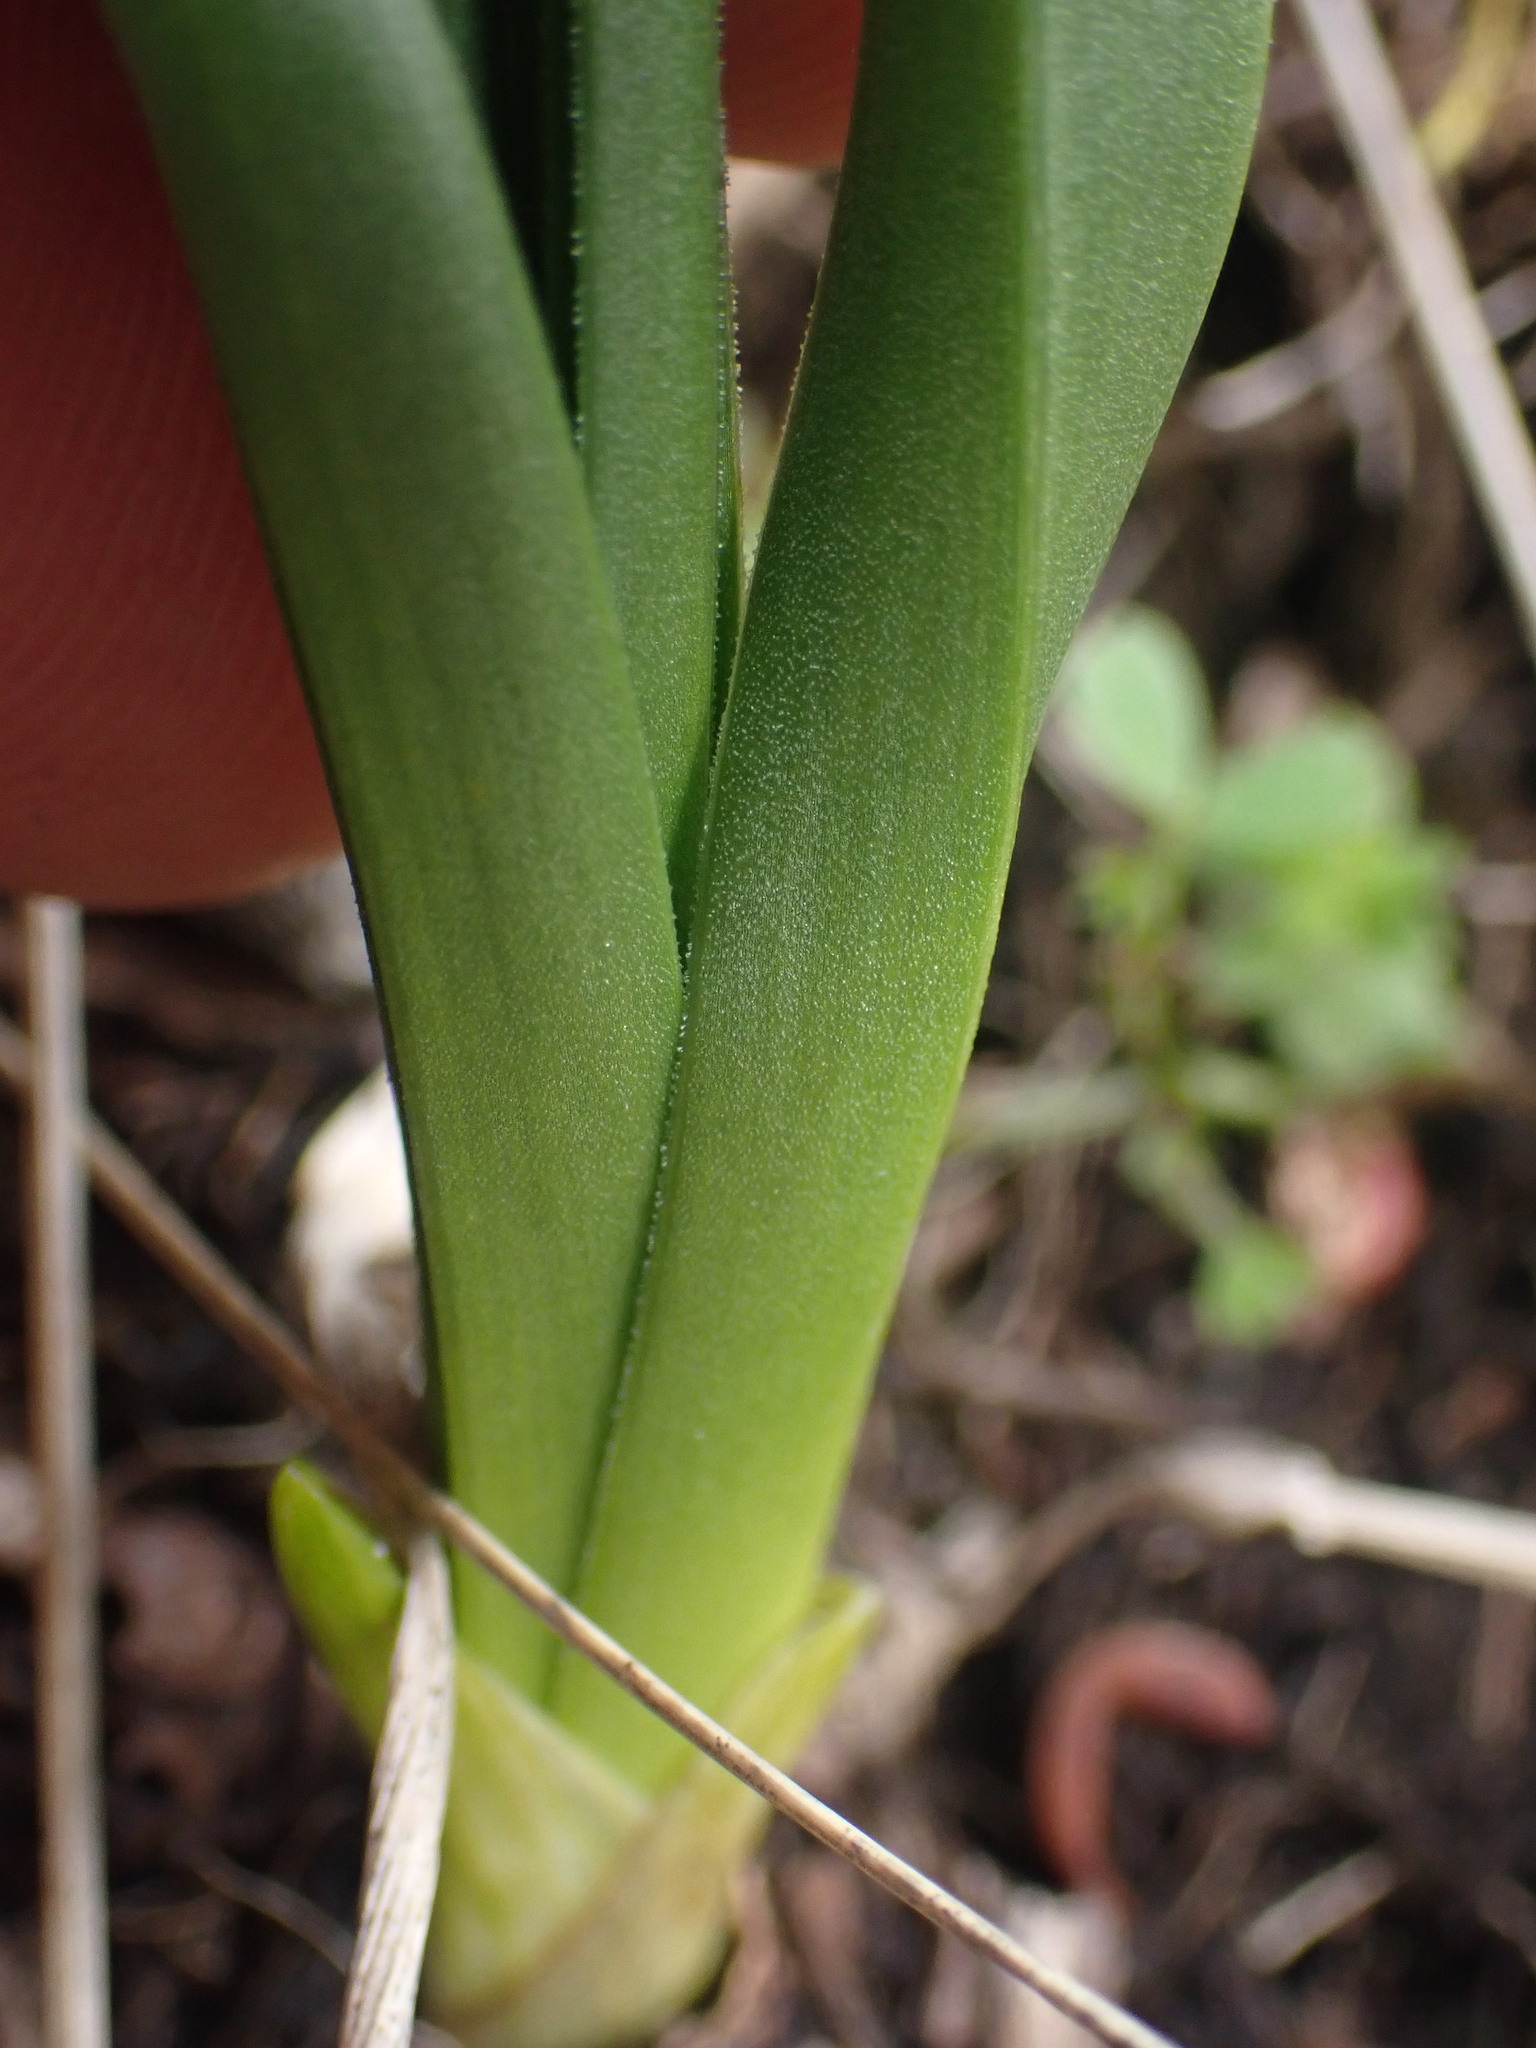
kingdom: Plantae
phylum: Tracheophyta
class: Liliopsida
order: Liliales
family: Melanthiaceae
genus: Toxicoscordion
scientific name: Toxicoscordion venenosum
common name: Meadow death camas
